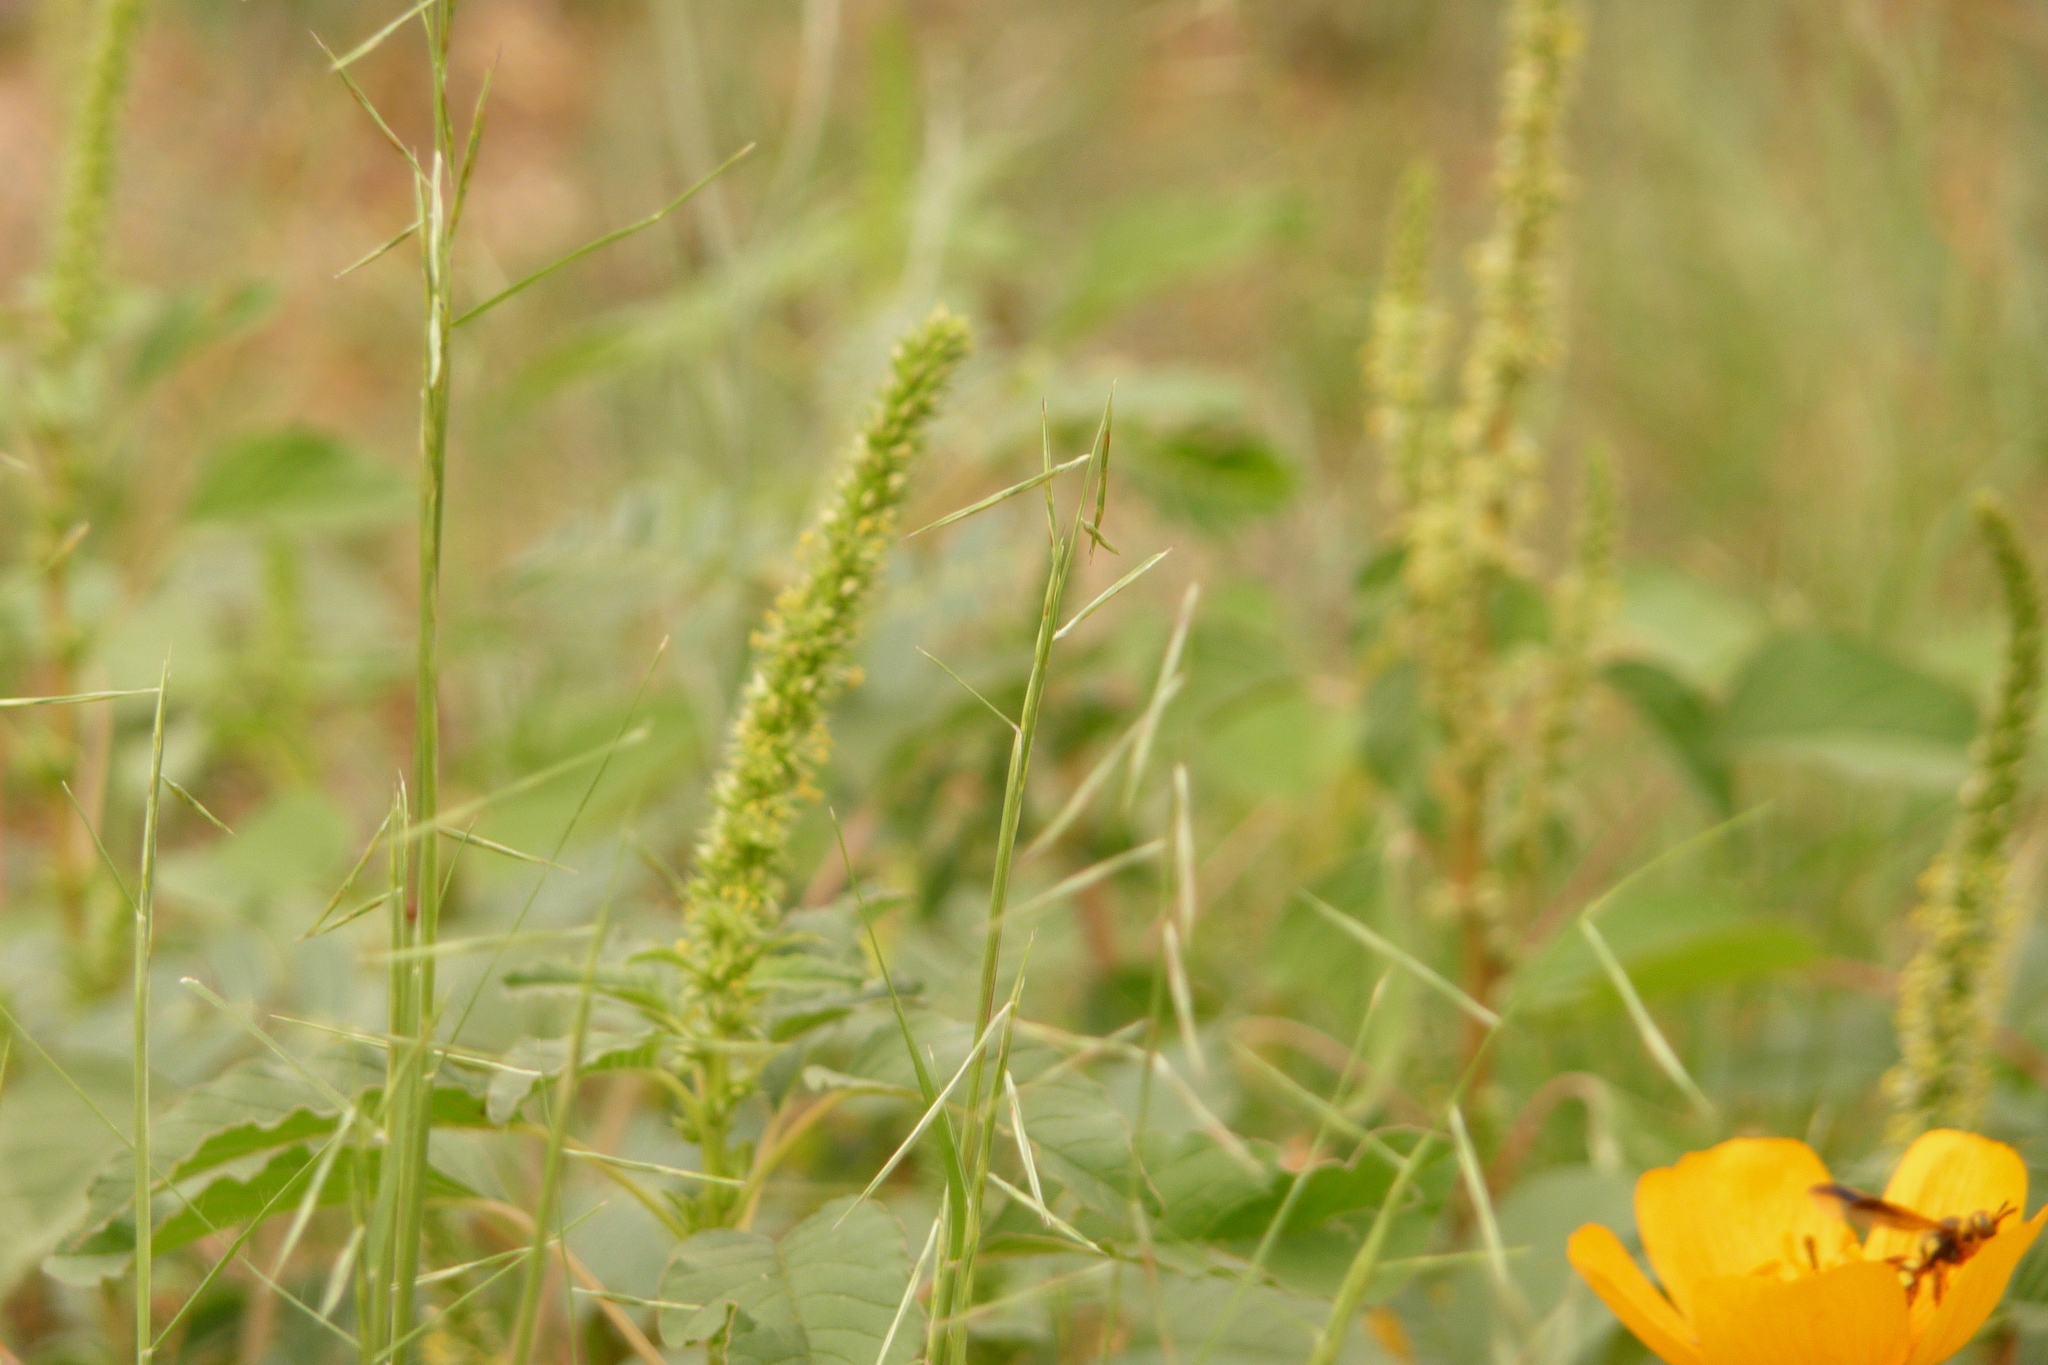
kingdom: Plantae
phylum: Tracheophyta
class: Liliopsida
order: Poales
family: Poaceae
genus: Bouteloua
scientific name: Bouteloua aristidoides
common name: Needle grama
